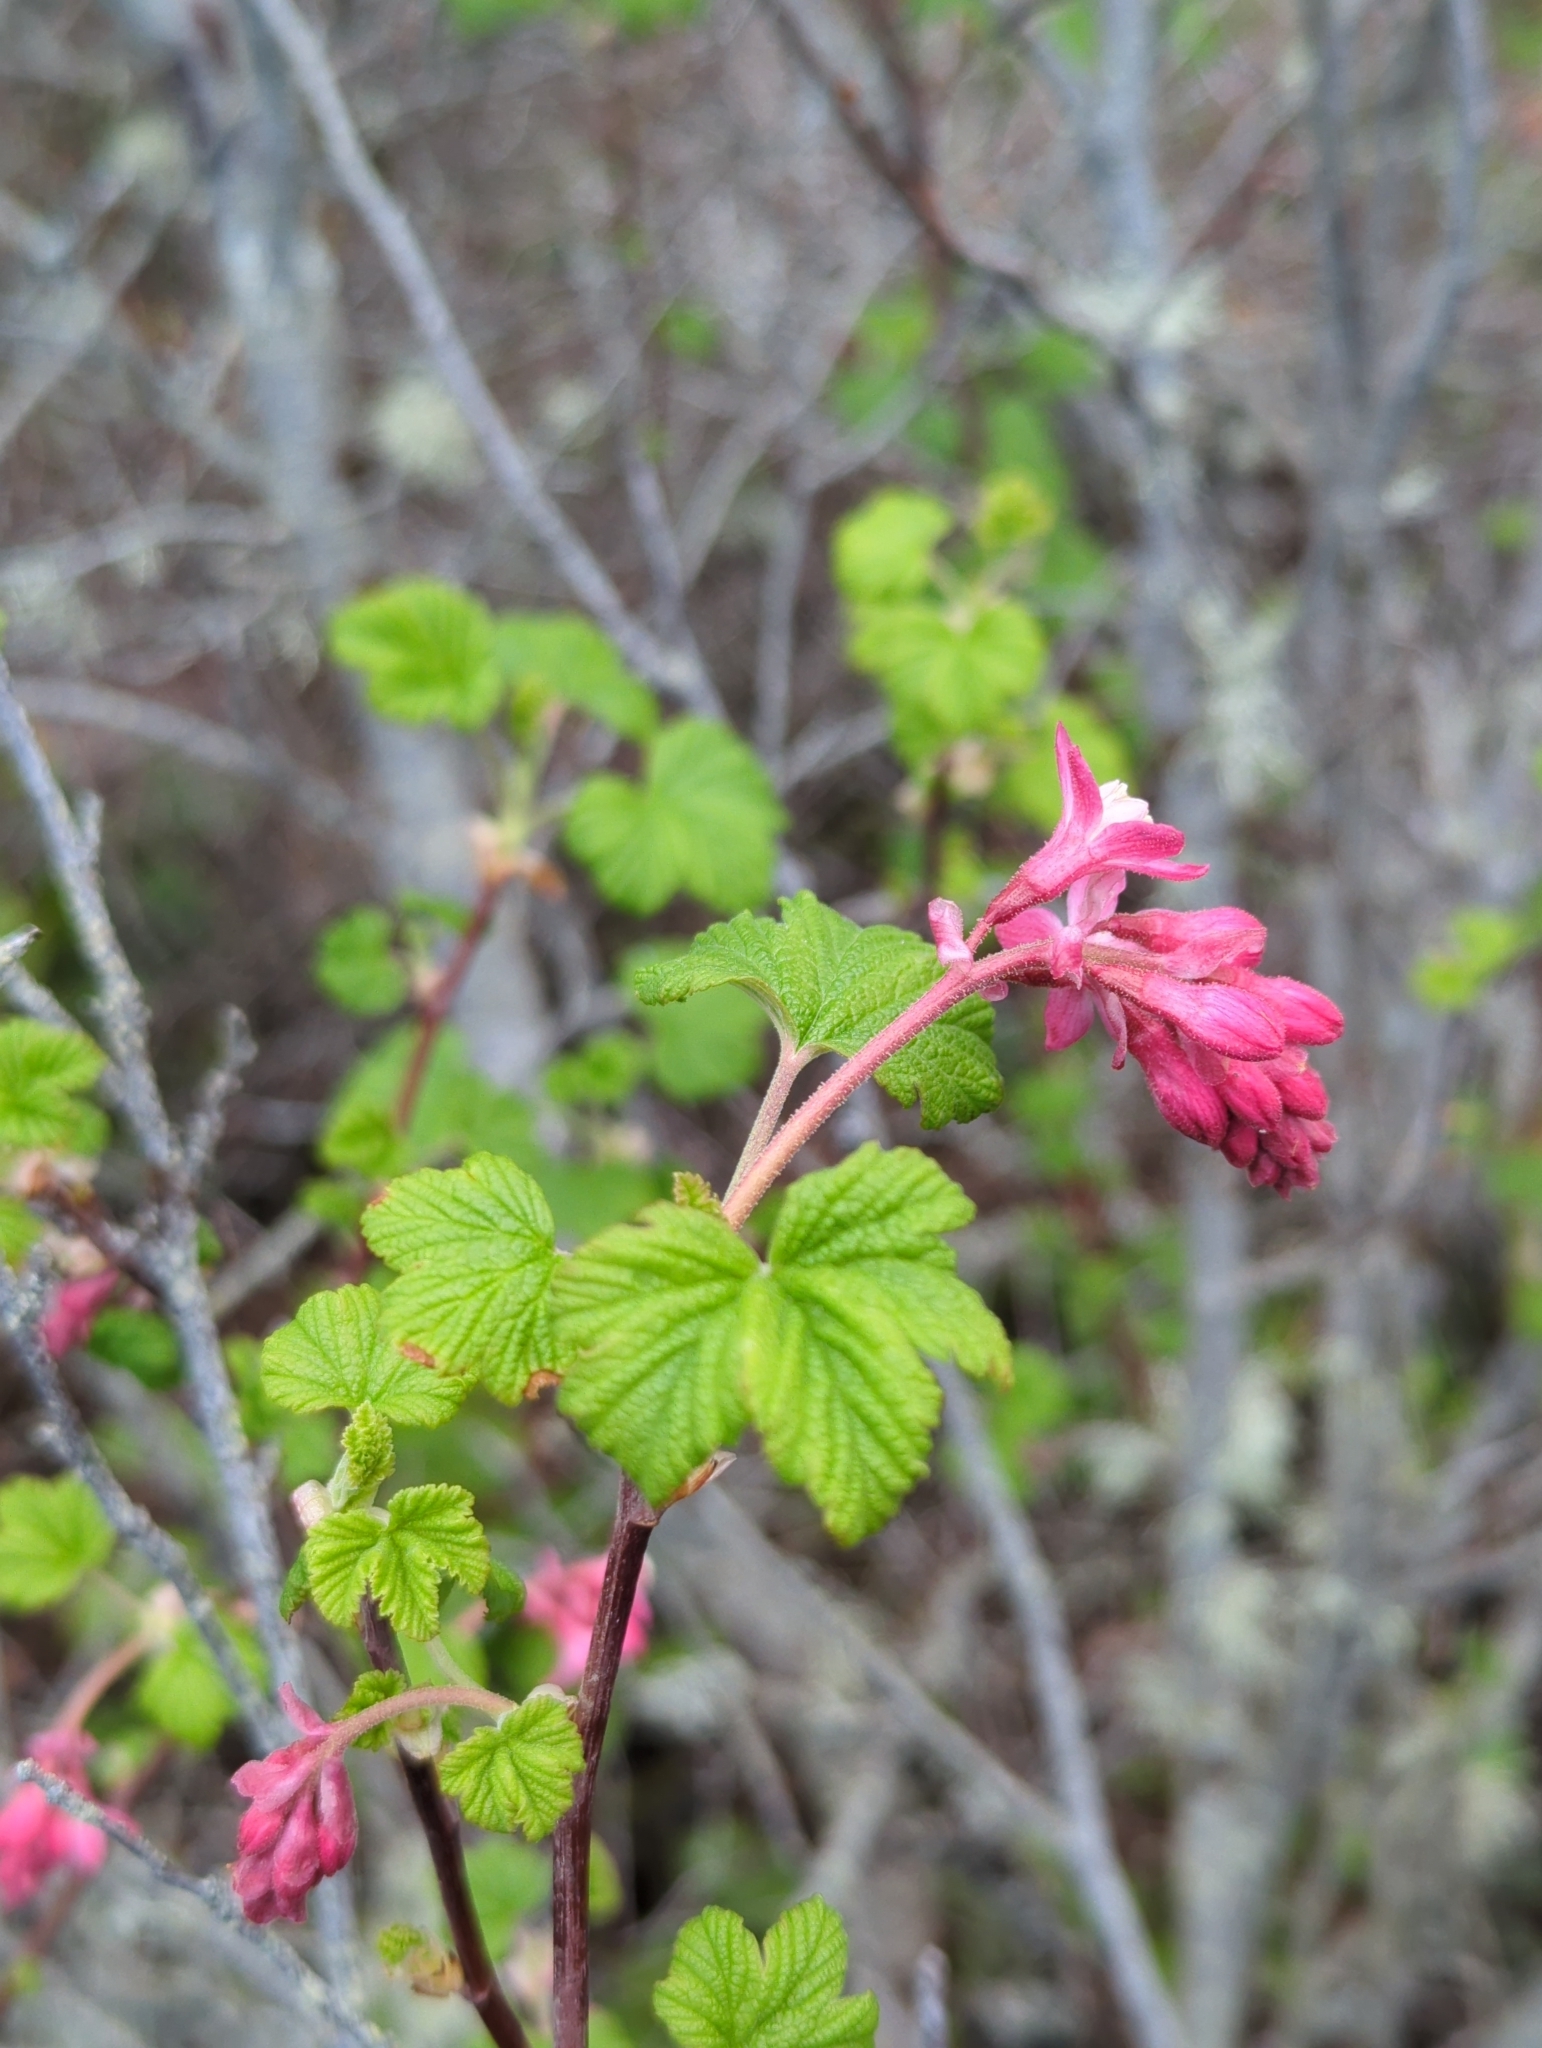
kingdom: Plantae
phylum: Tracheophyta
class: Magnoliopsida
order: Saxifragales
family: Grossulariaceae
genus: Ribes
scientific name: Ribes sanguineum
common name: Flowering currant
